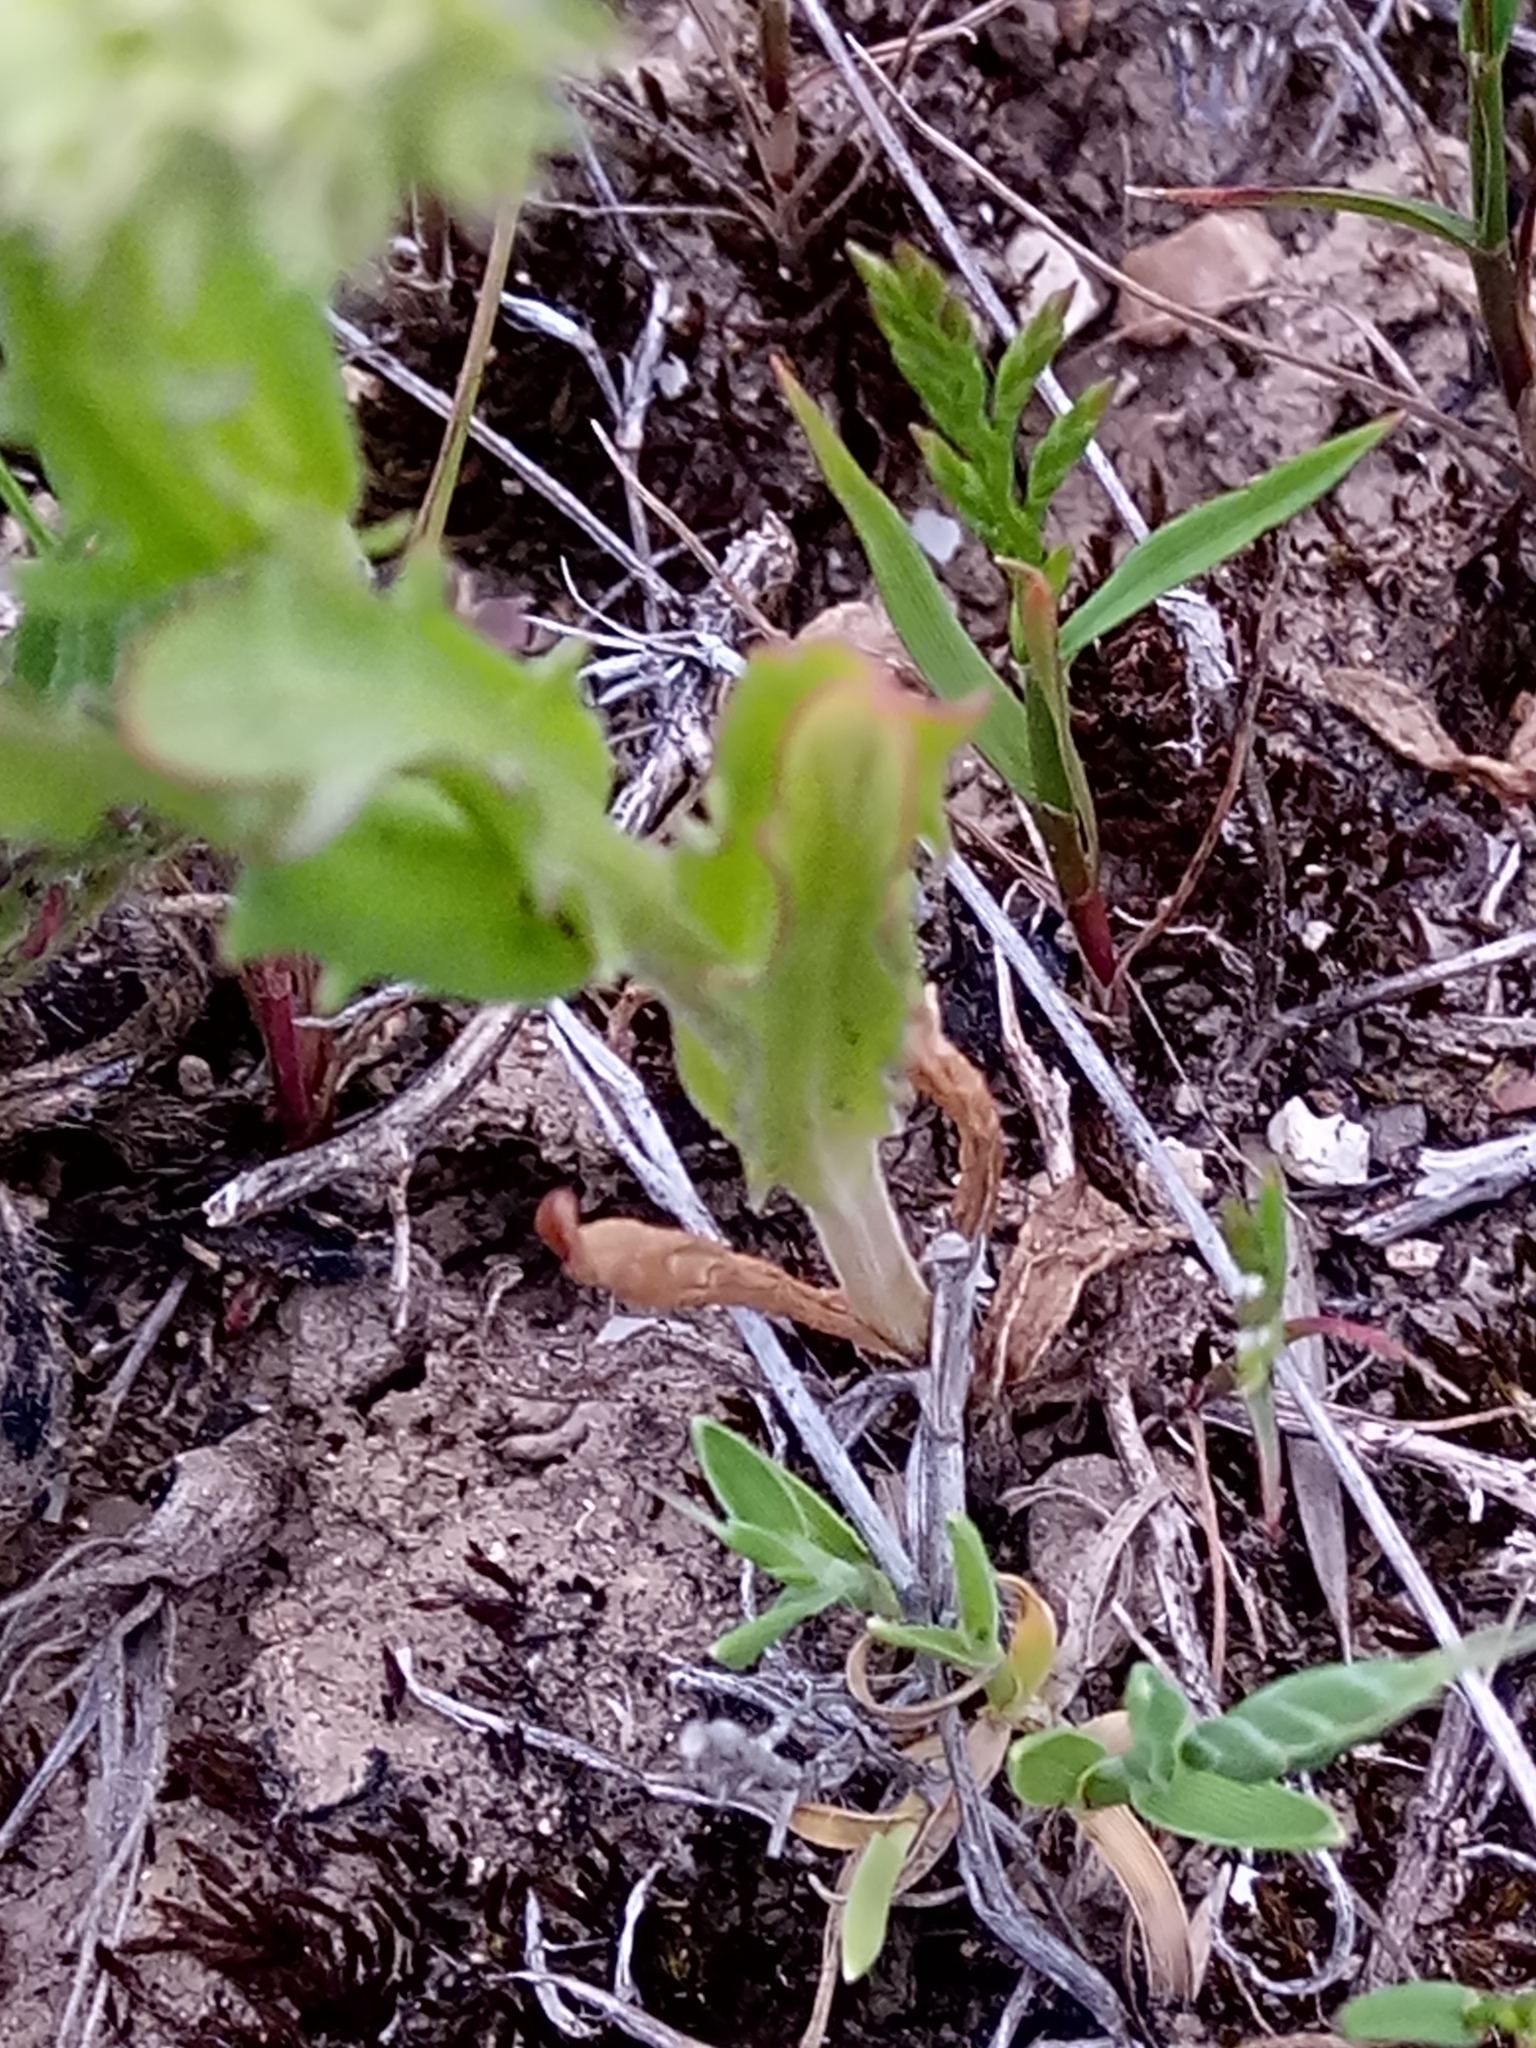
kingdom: Plantae
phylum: Tracheophyta
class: Magnoliopsida
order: Dipsacales
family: Caprifoliaceae
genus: Valerianella
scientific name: Valerianella discoidea
